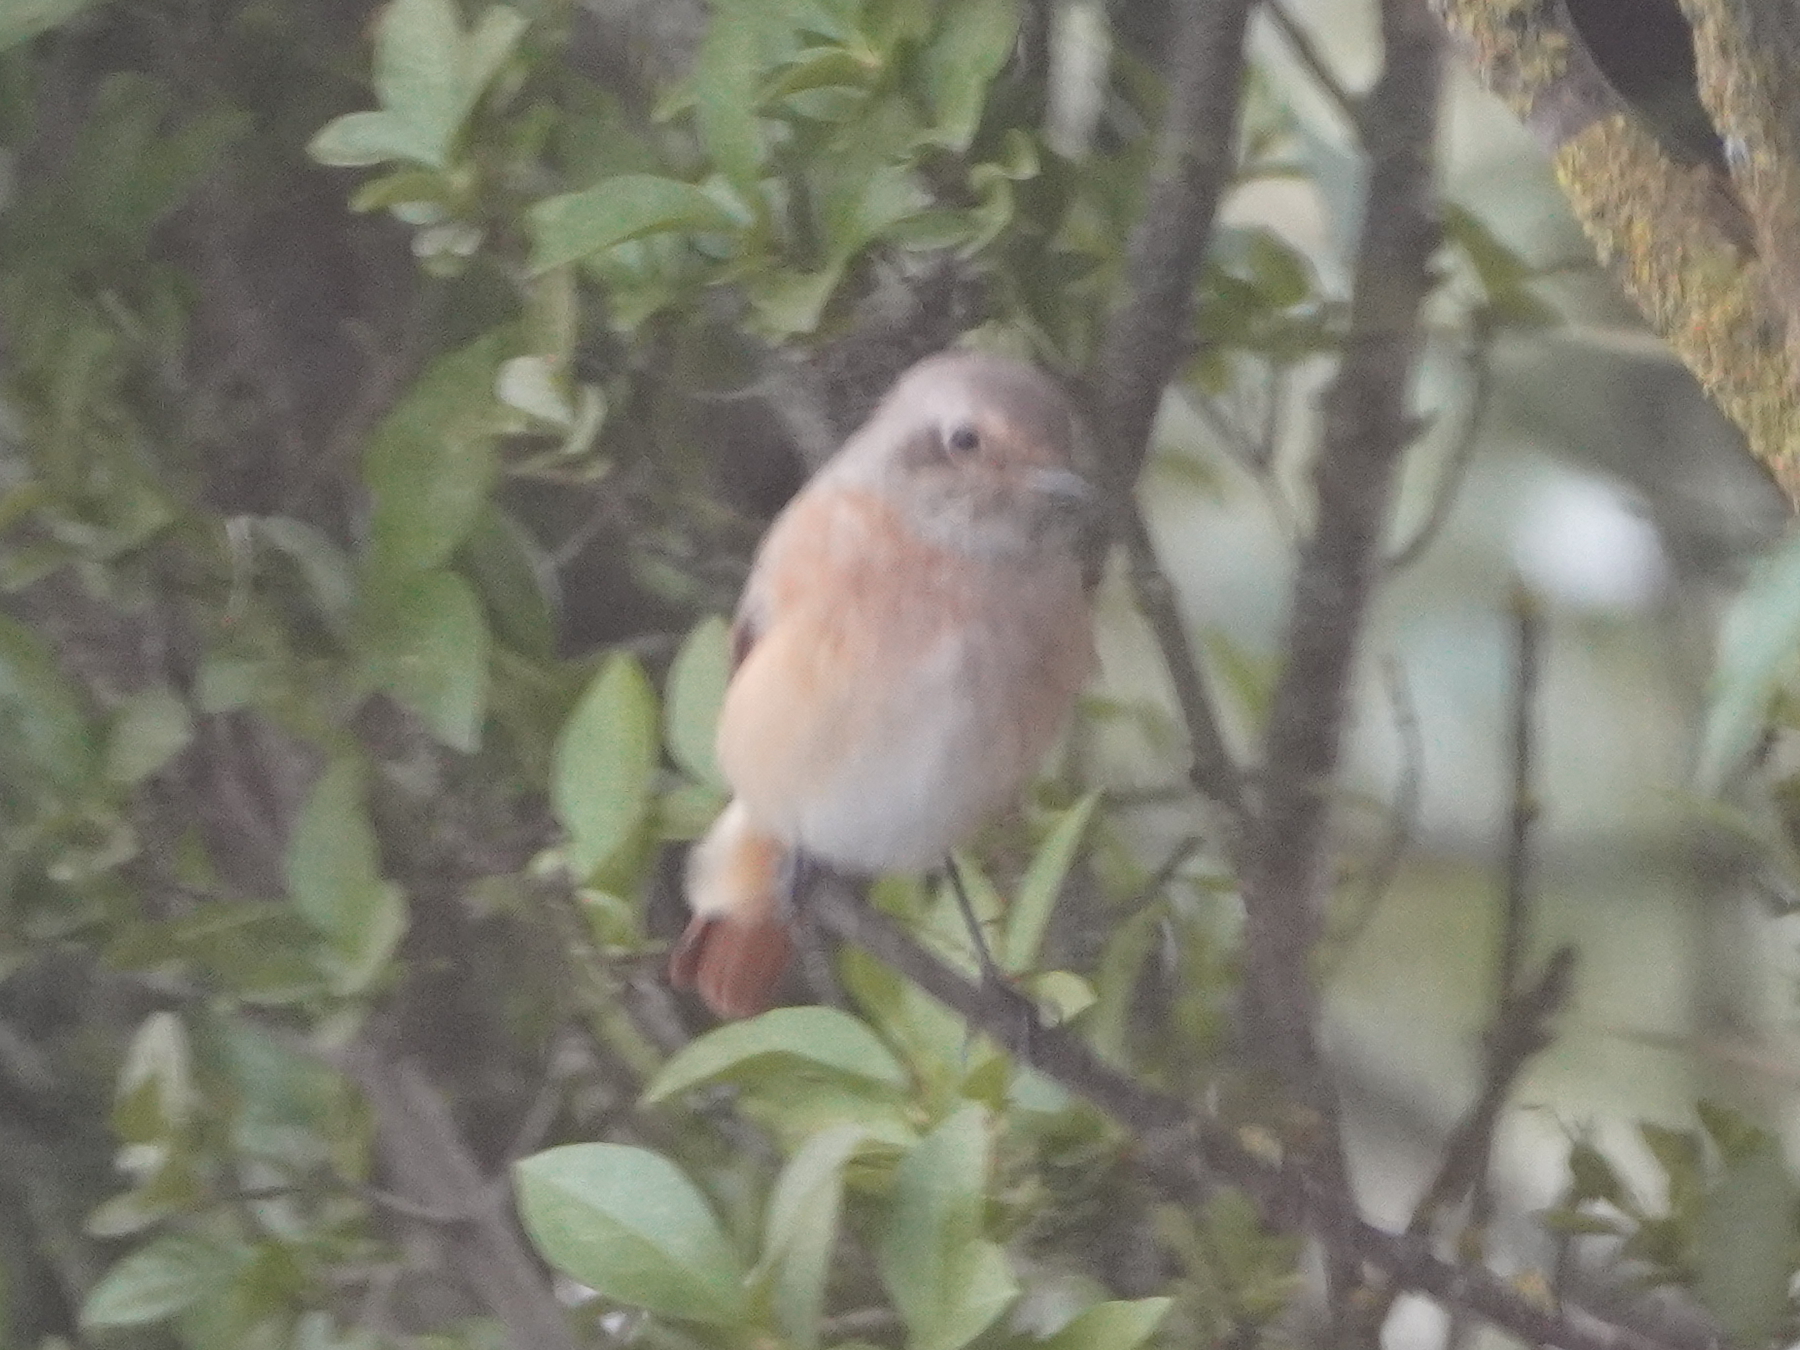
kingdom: Animalia
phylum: Chordata
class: Aves
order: Passeriformes
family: Muscicapidae
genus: Phoenicurus
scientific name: Phoenicurus phoenicurus
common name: Common redstart
